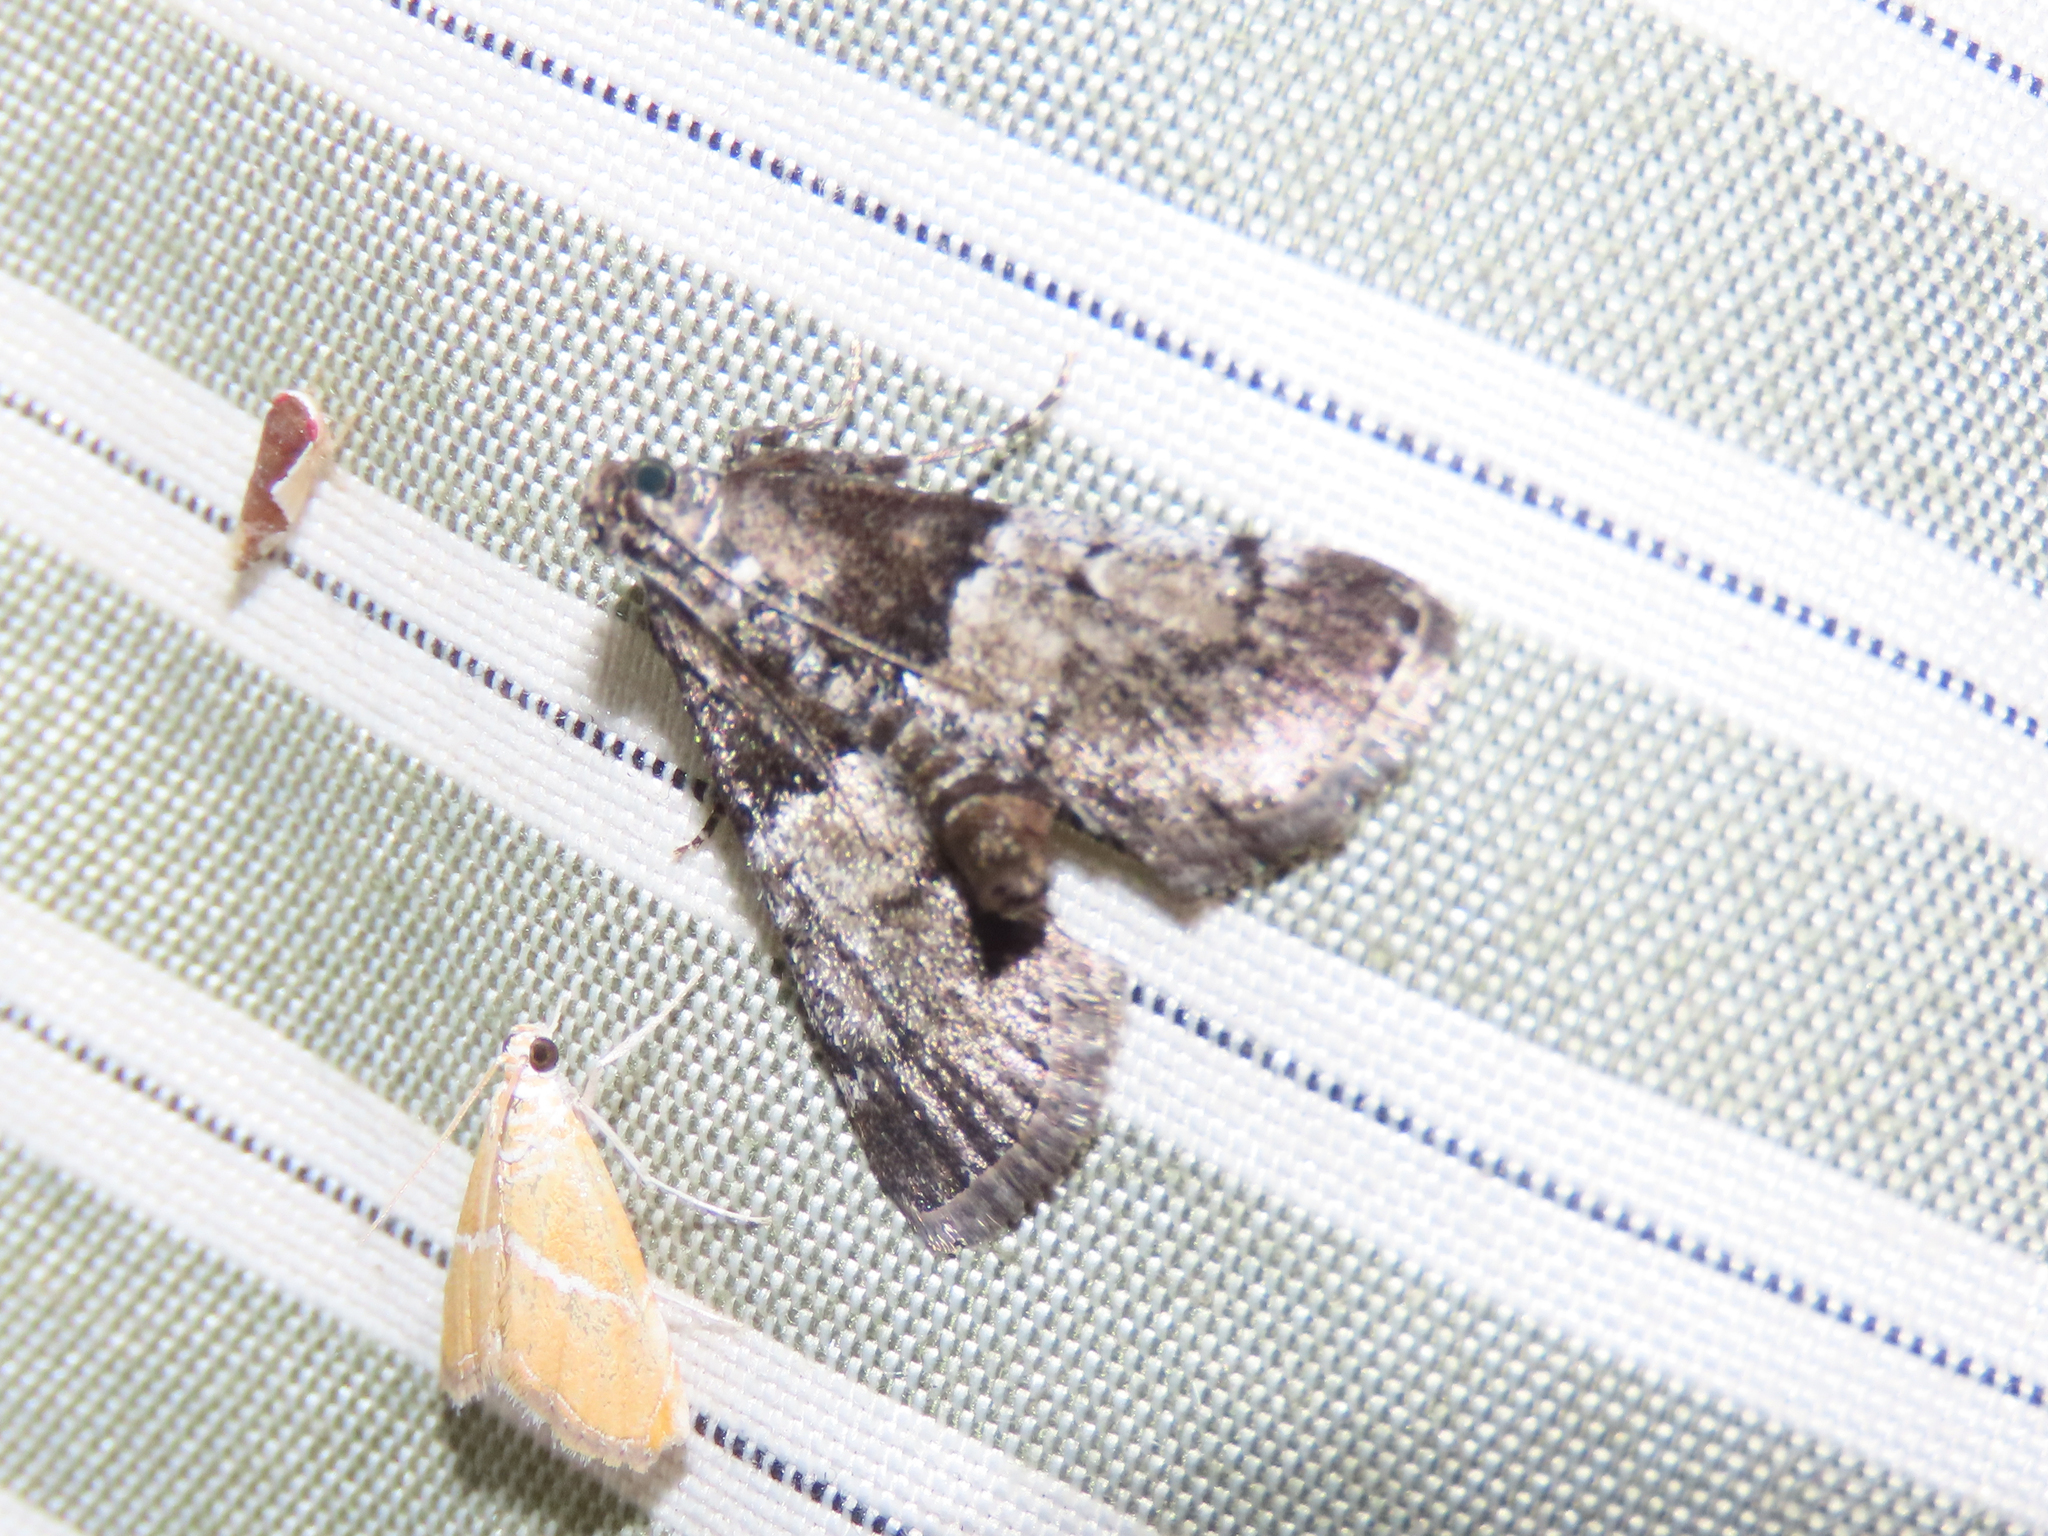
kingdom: Animalia
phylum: Arthropoda
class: Insecta
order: Lepidoptera
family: Pyralidae
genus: Macalla
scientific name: Macalla zelleri
